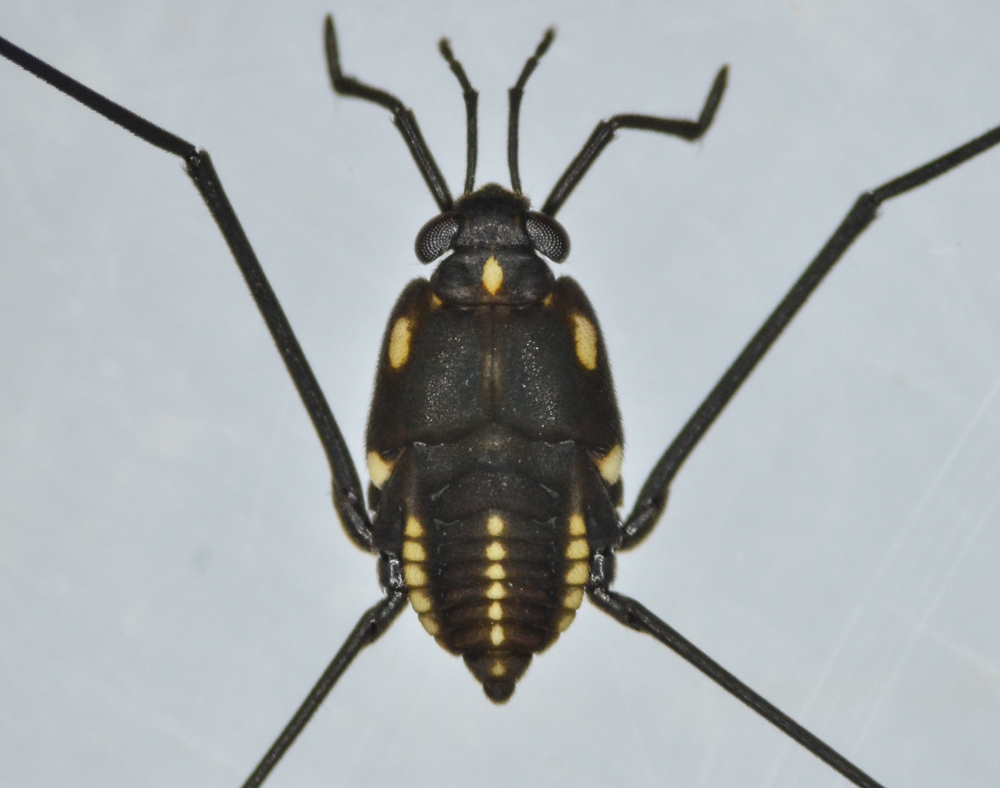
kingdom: Animalia
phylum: Arthropoda
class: Insecta
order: Hemiptera
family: Gerridae
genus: Metrobates
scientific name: Metrobates trux
